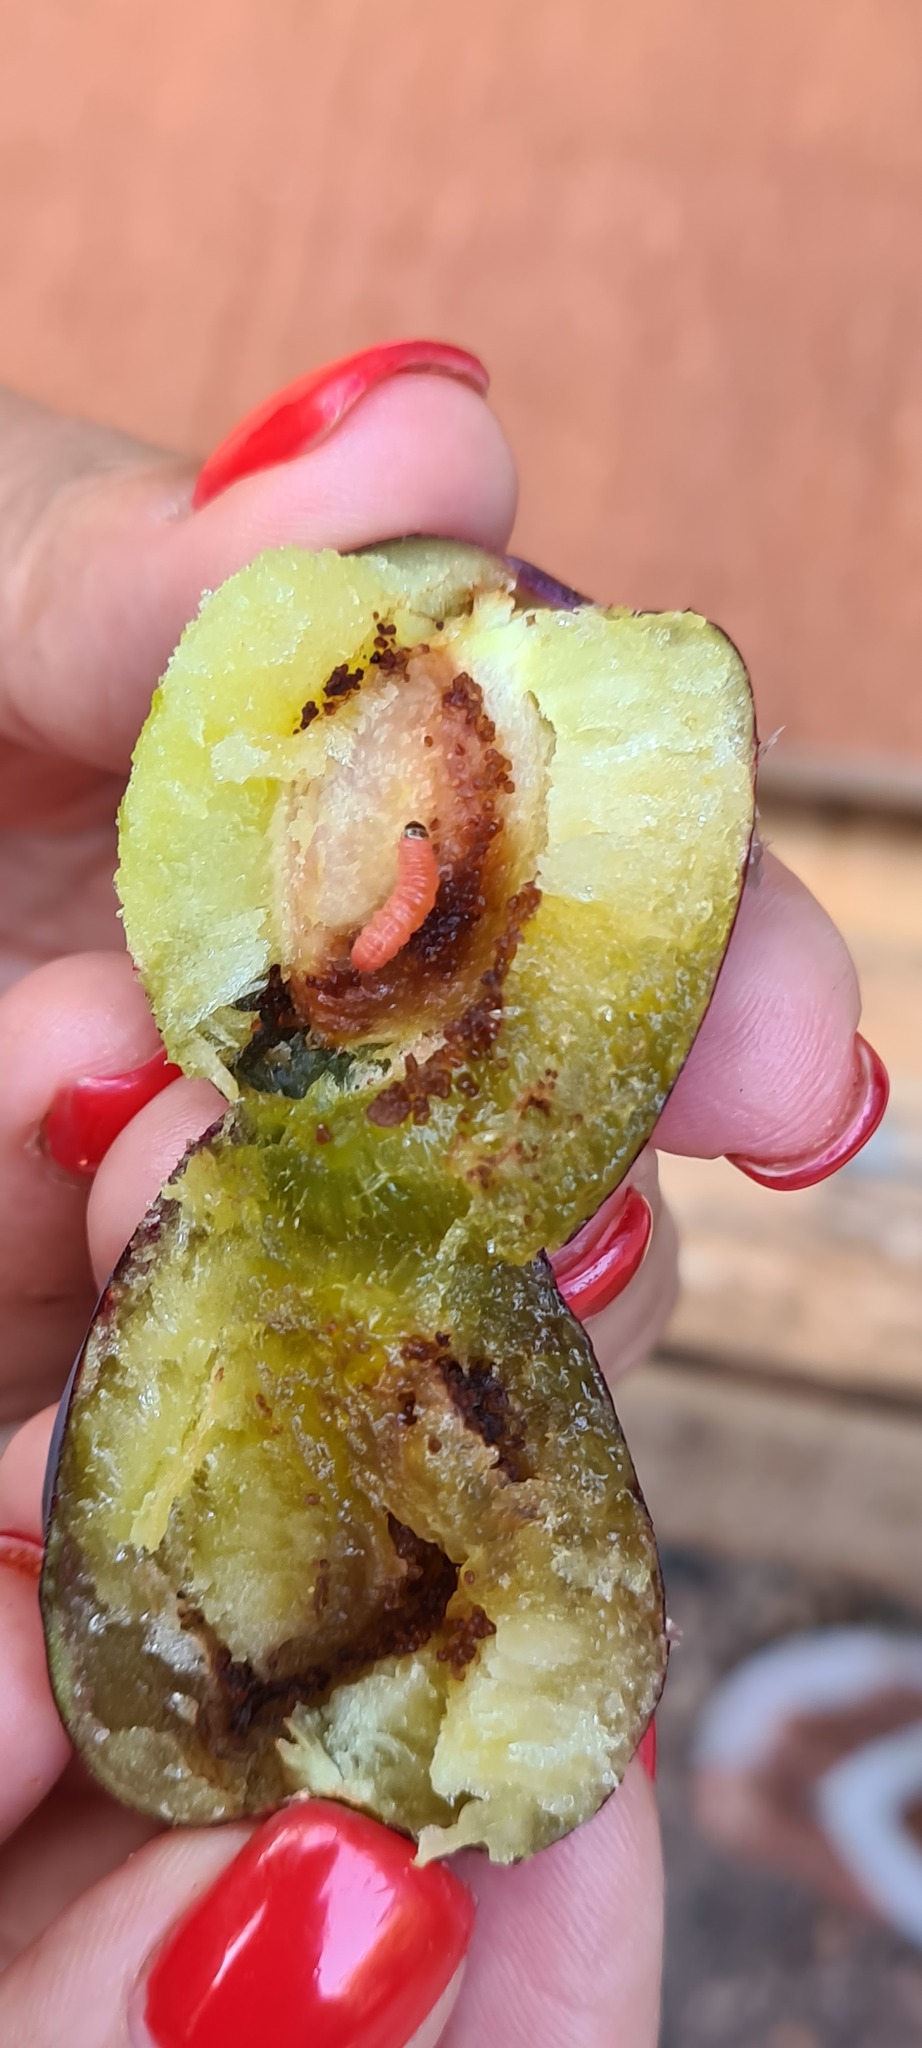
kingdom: Animalia
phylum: Arthropoda
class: Insecta
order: Lepidoptera
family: Noctuidae
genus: Aspila
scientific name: Aspila
